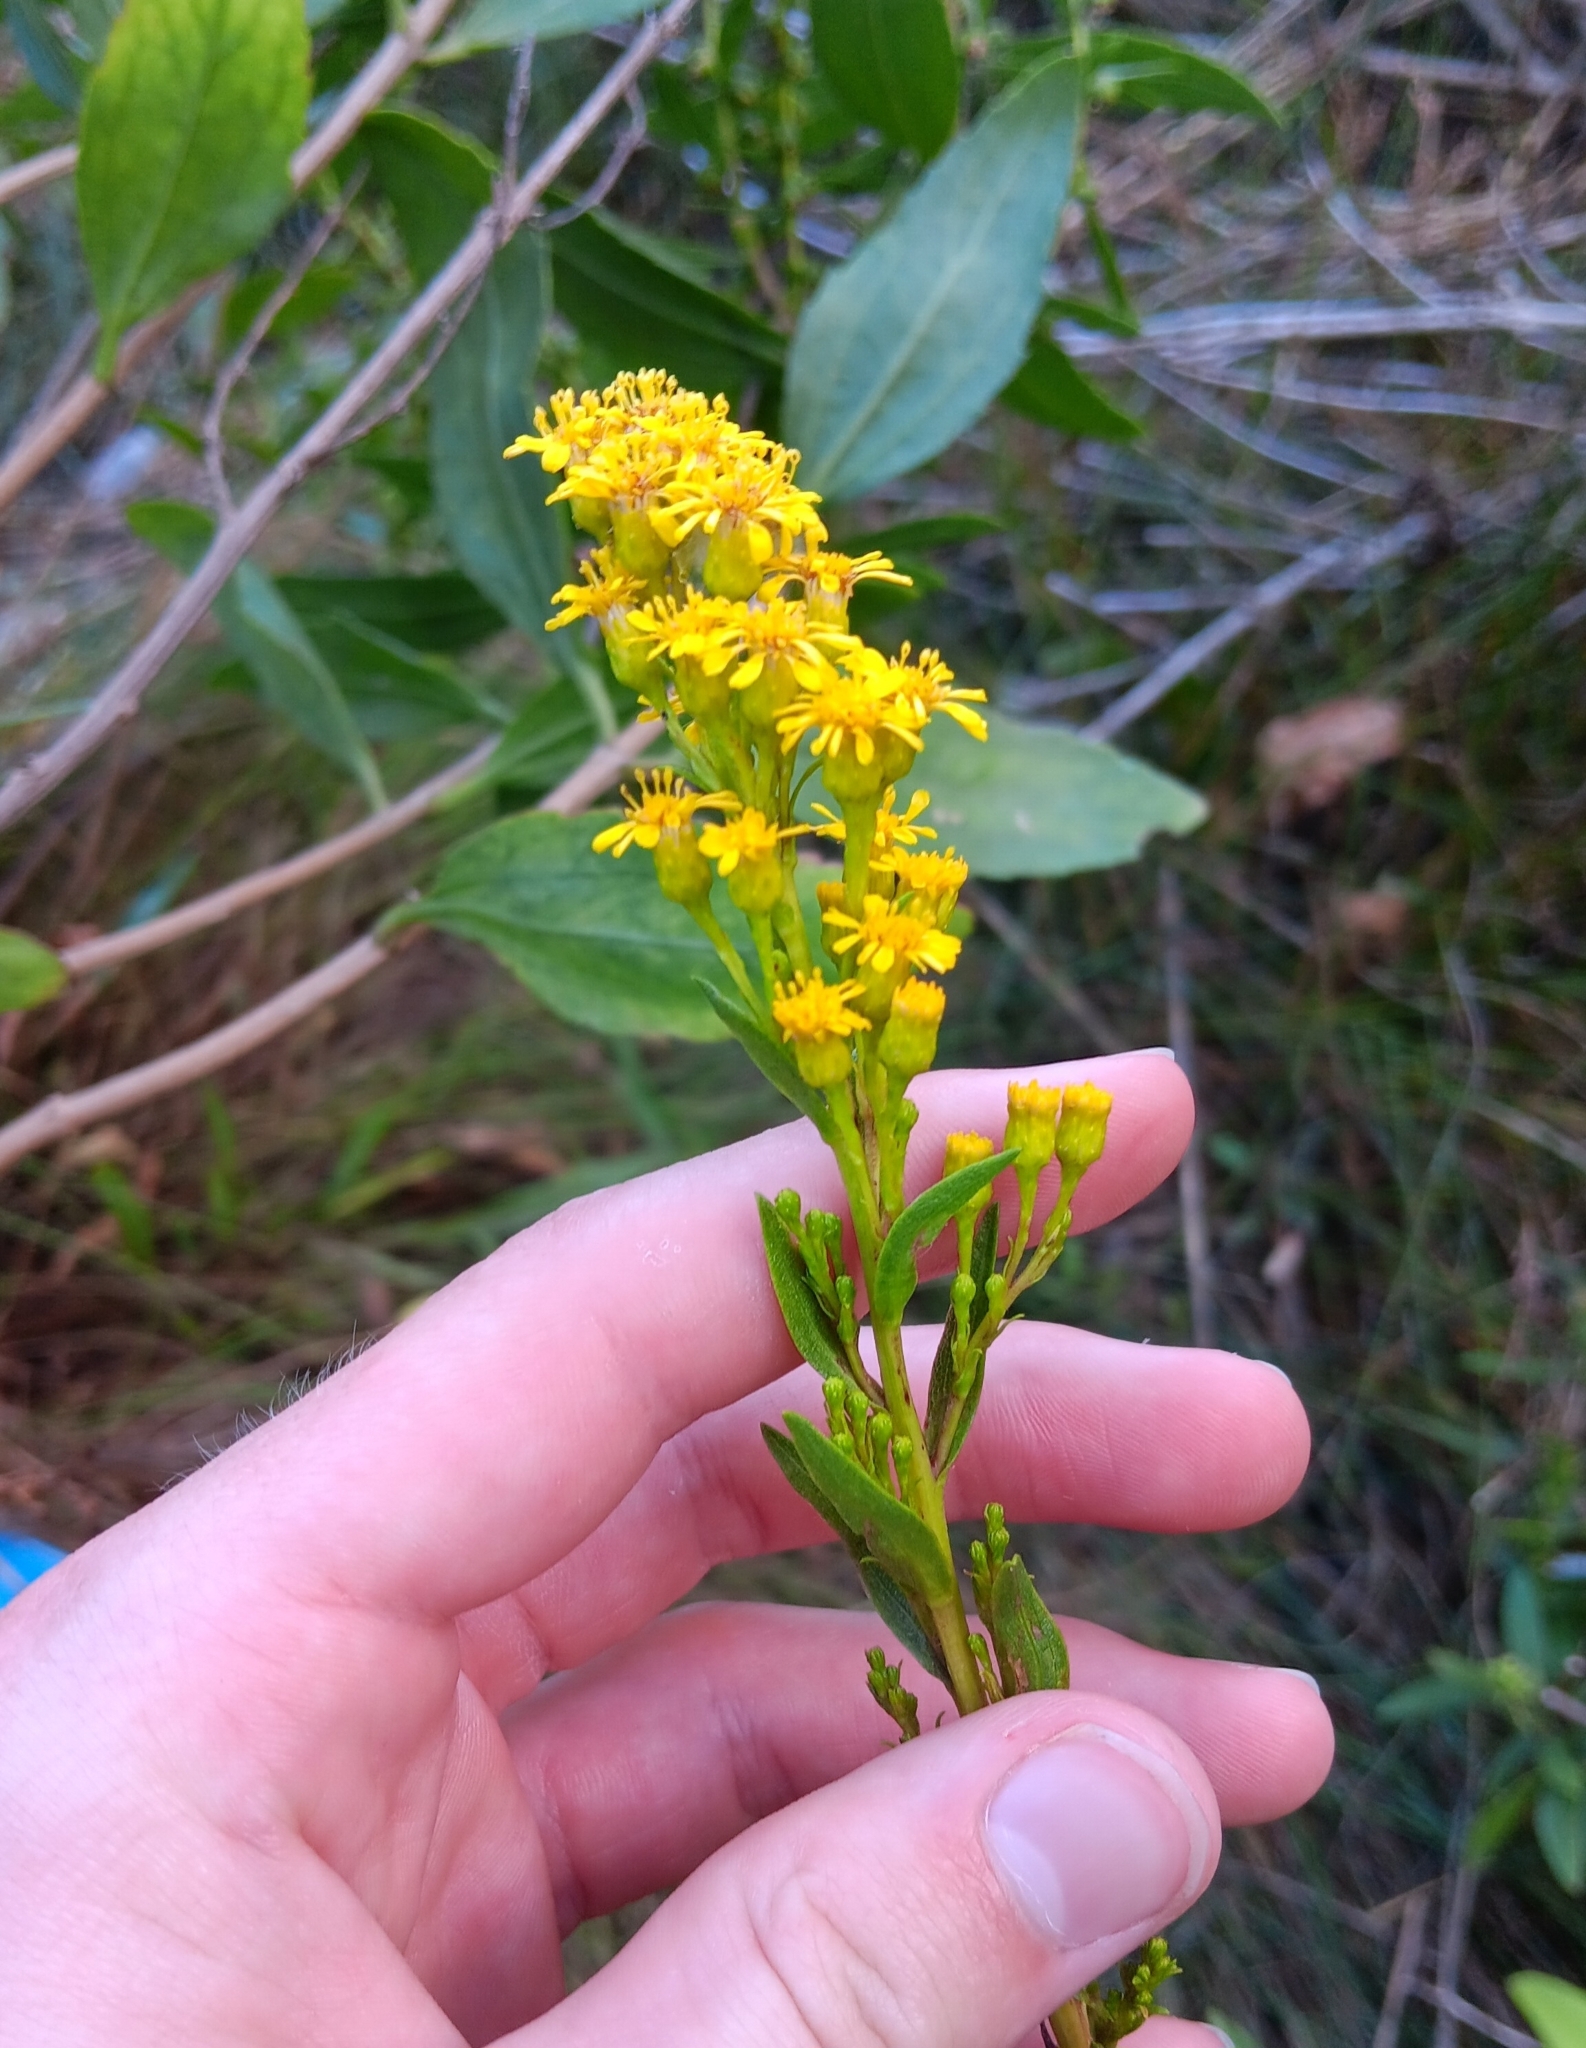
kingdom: Plantae
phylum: Tracheophyta
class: Magnoliopsida
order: Asterales
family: Asteraceae
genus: Solidago
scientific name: Solidago sempervirens
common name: Salt-marsh goldenrod
